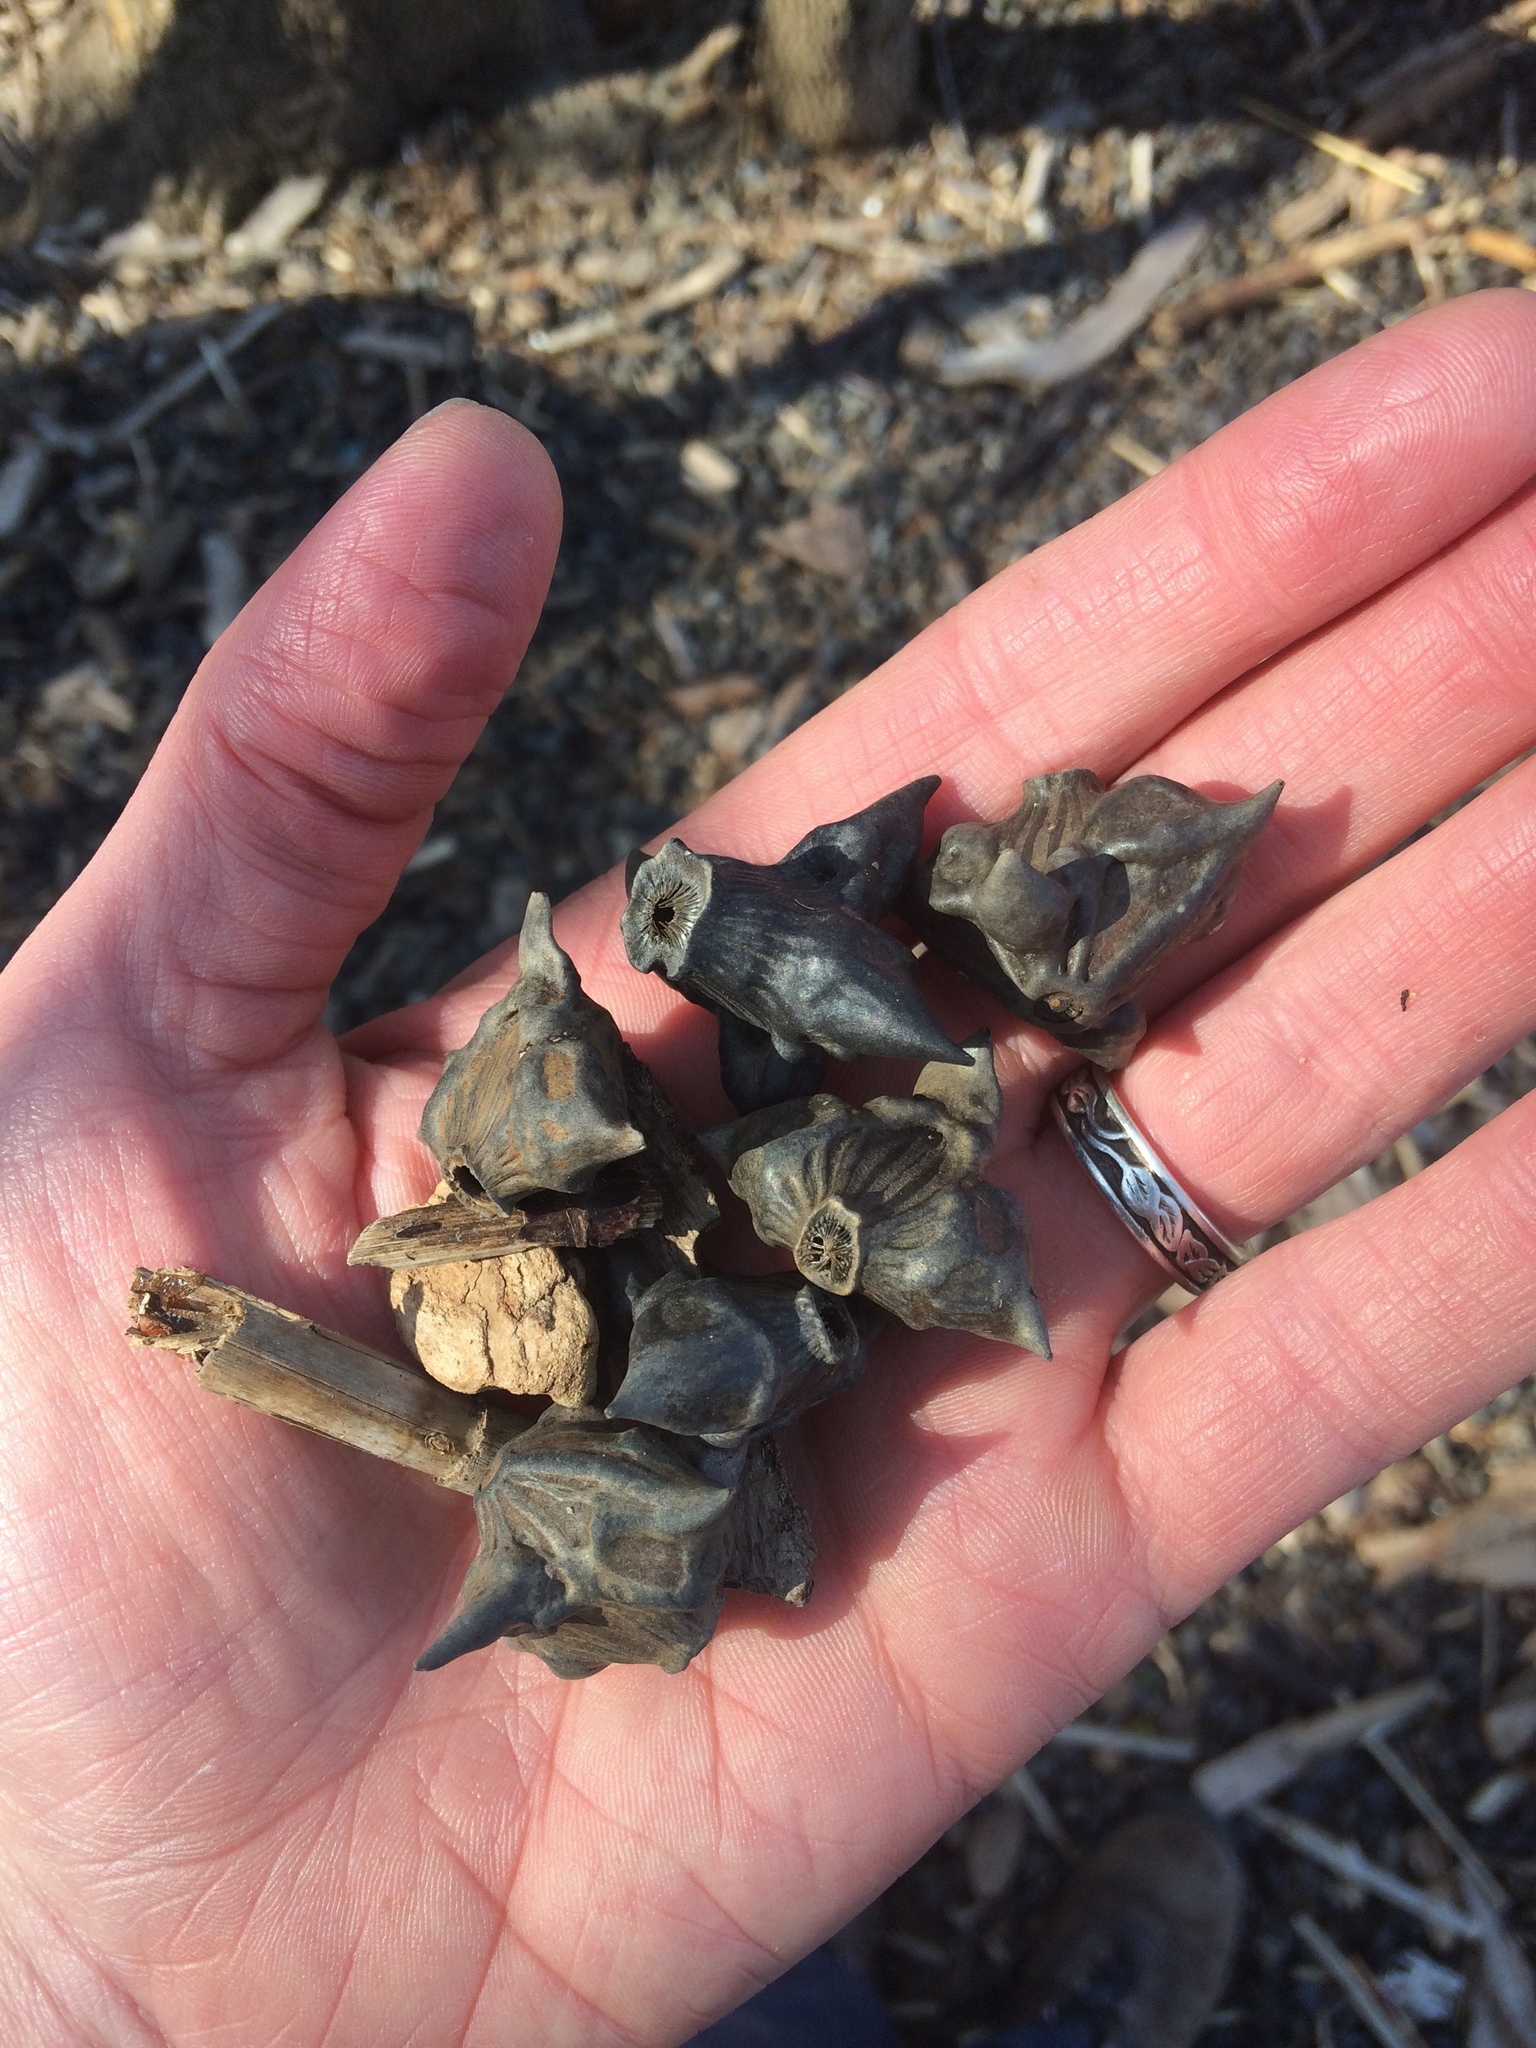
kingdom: Plantae
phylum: Tracheophyta
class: Magnoliopsida
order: Myrtales
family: Lythraceae
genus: Trapa
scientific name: Trapa natans
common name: Water chestnut
